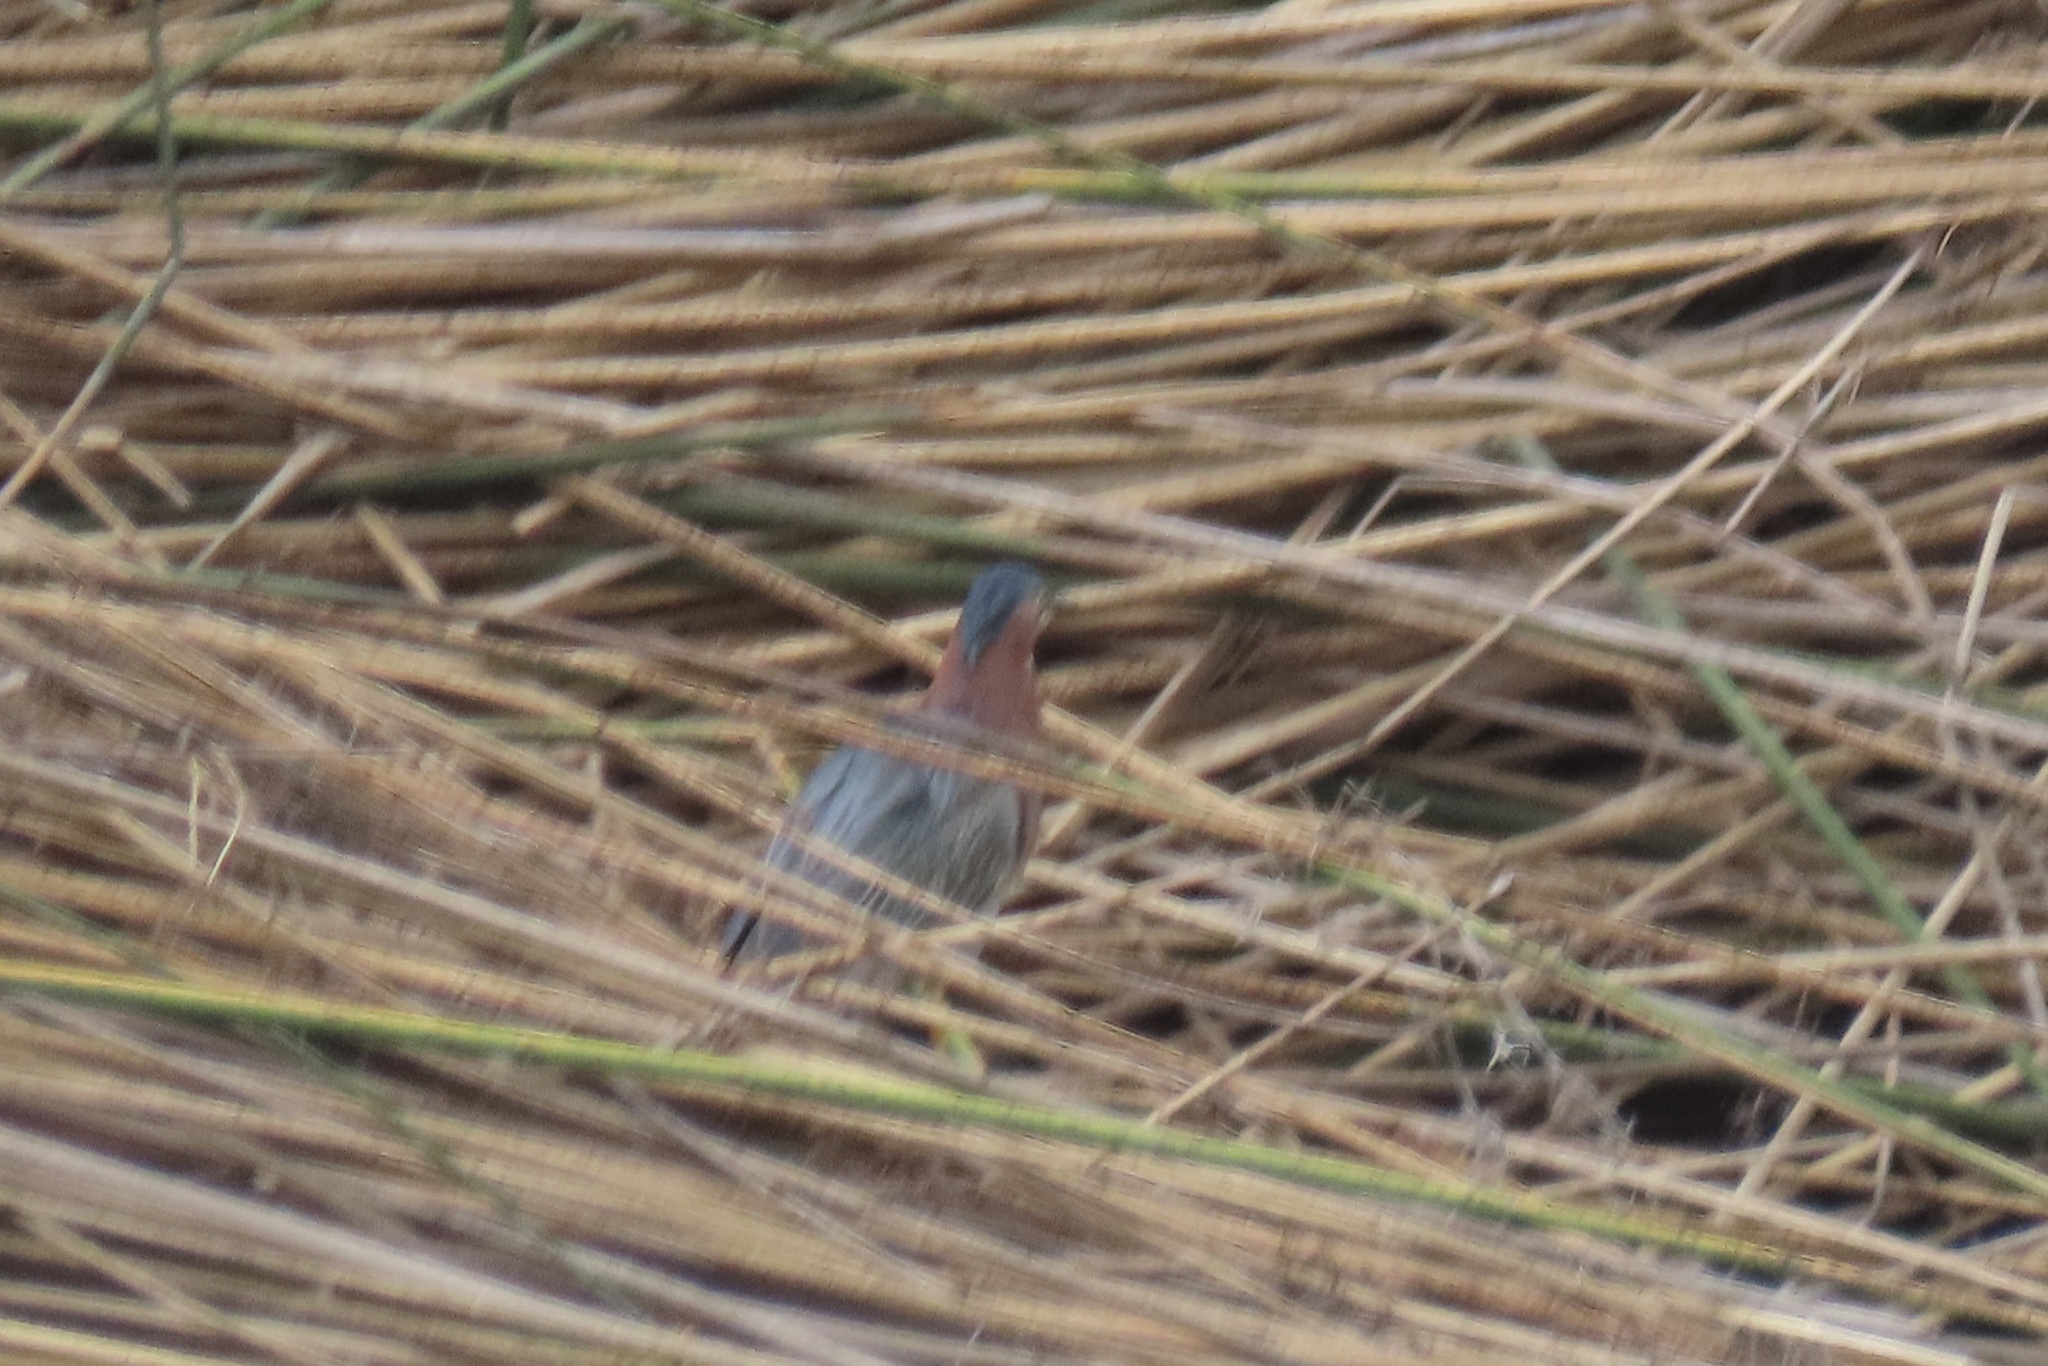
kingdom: Animalia
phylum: Chordata
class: Aves
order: Pelecaniformes
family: Ardeidae
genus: Butorides
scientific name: Butorides virescens
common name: Green heron
